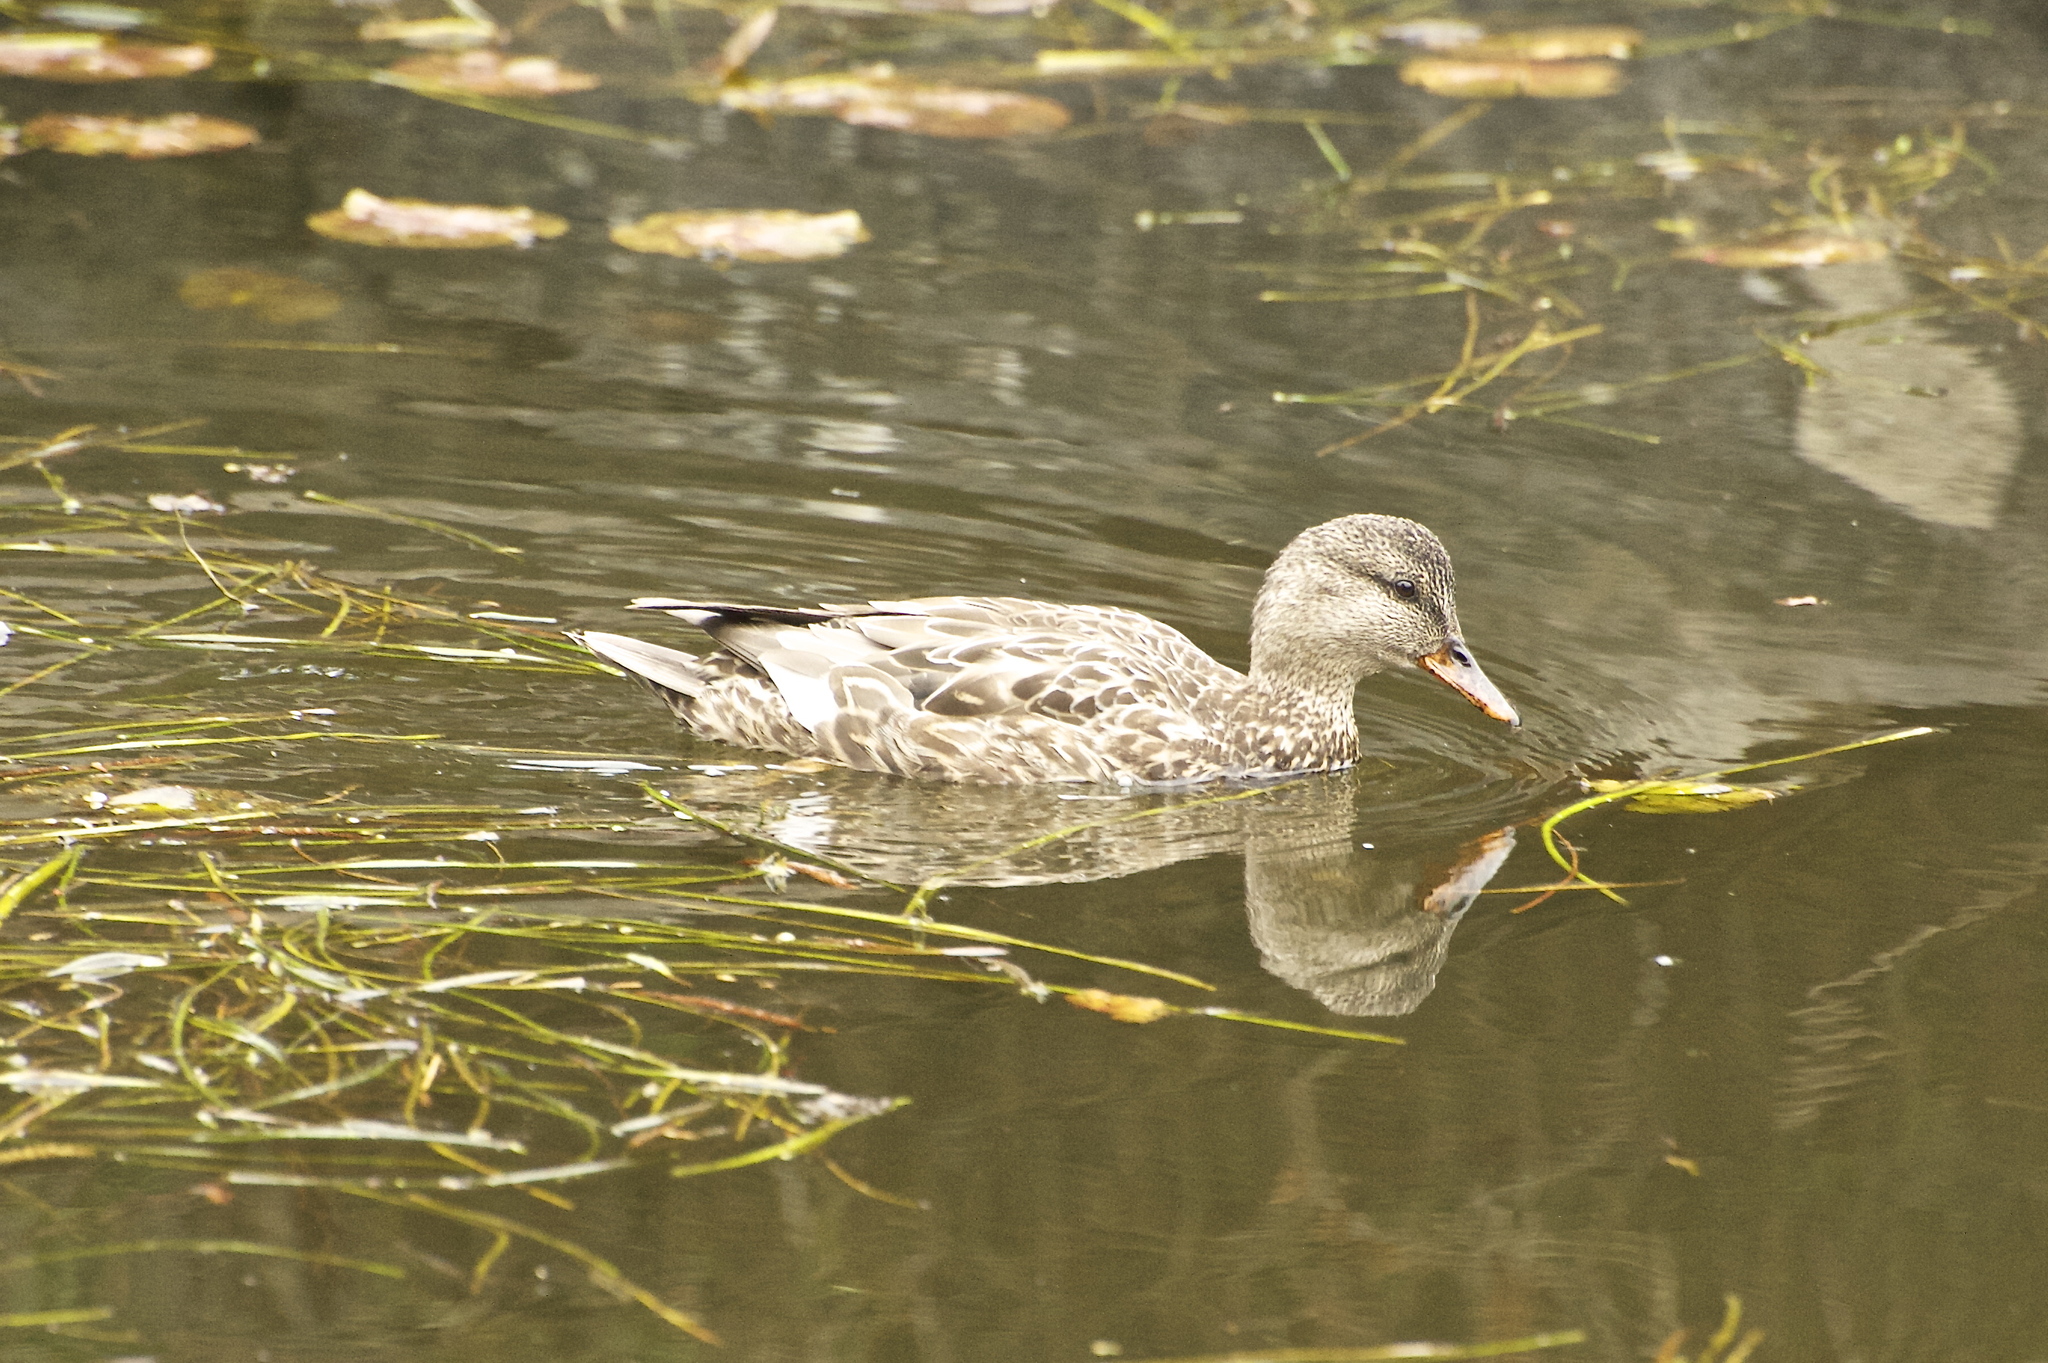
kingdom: Animalia
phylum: Chordata
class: Aves
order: Anseriformes
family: Anatidae
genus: Mareca
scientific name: Mareca strepera
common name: Gadwall
